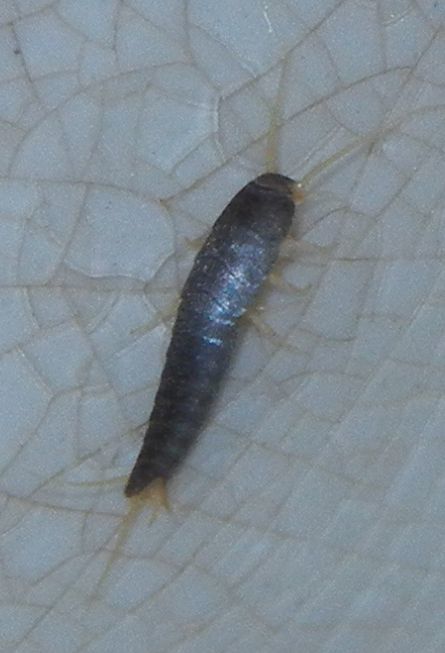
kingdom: Animalia
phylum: Arthropoda
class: Insecta
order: Zygentoma
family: Lepismatidae
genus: Lepisma
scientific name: Lepisma saccharinum
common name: Silverfish
